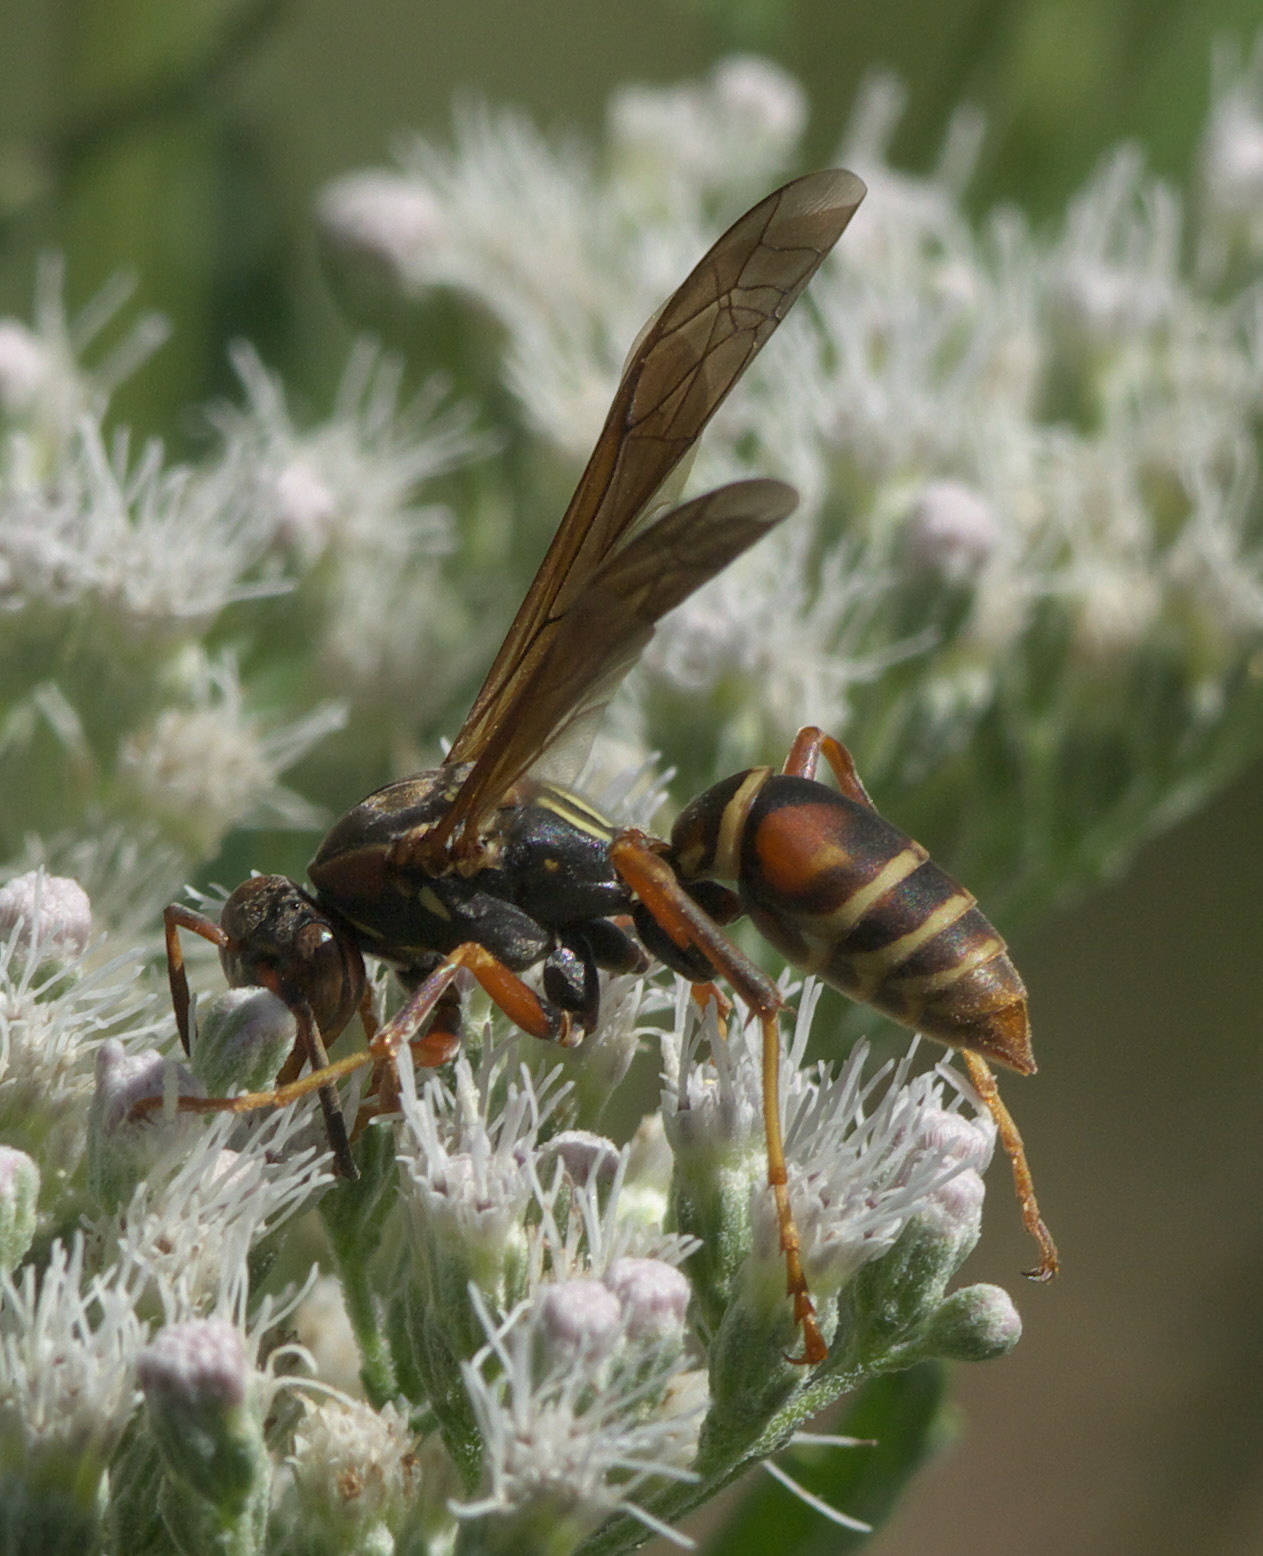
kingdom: Animalia
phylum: Arthropoda
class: Insecta
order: Hymenoptera
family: Eumenidae
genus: Polistes
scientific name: Polistes fuscatus
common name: Dark paper wasp
